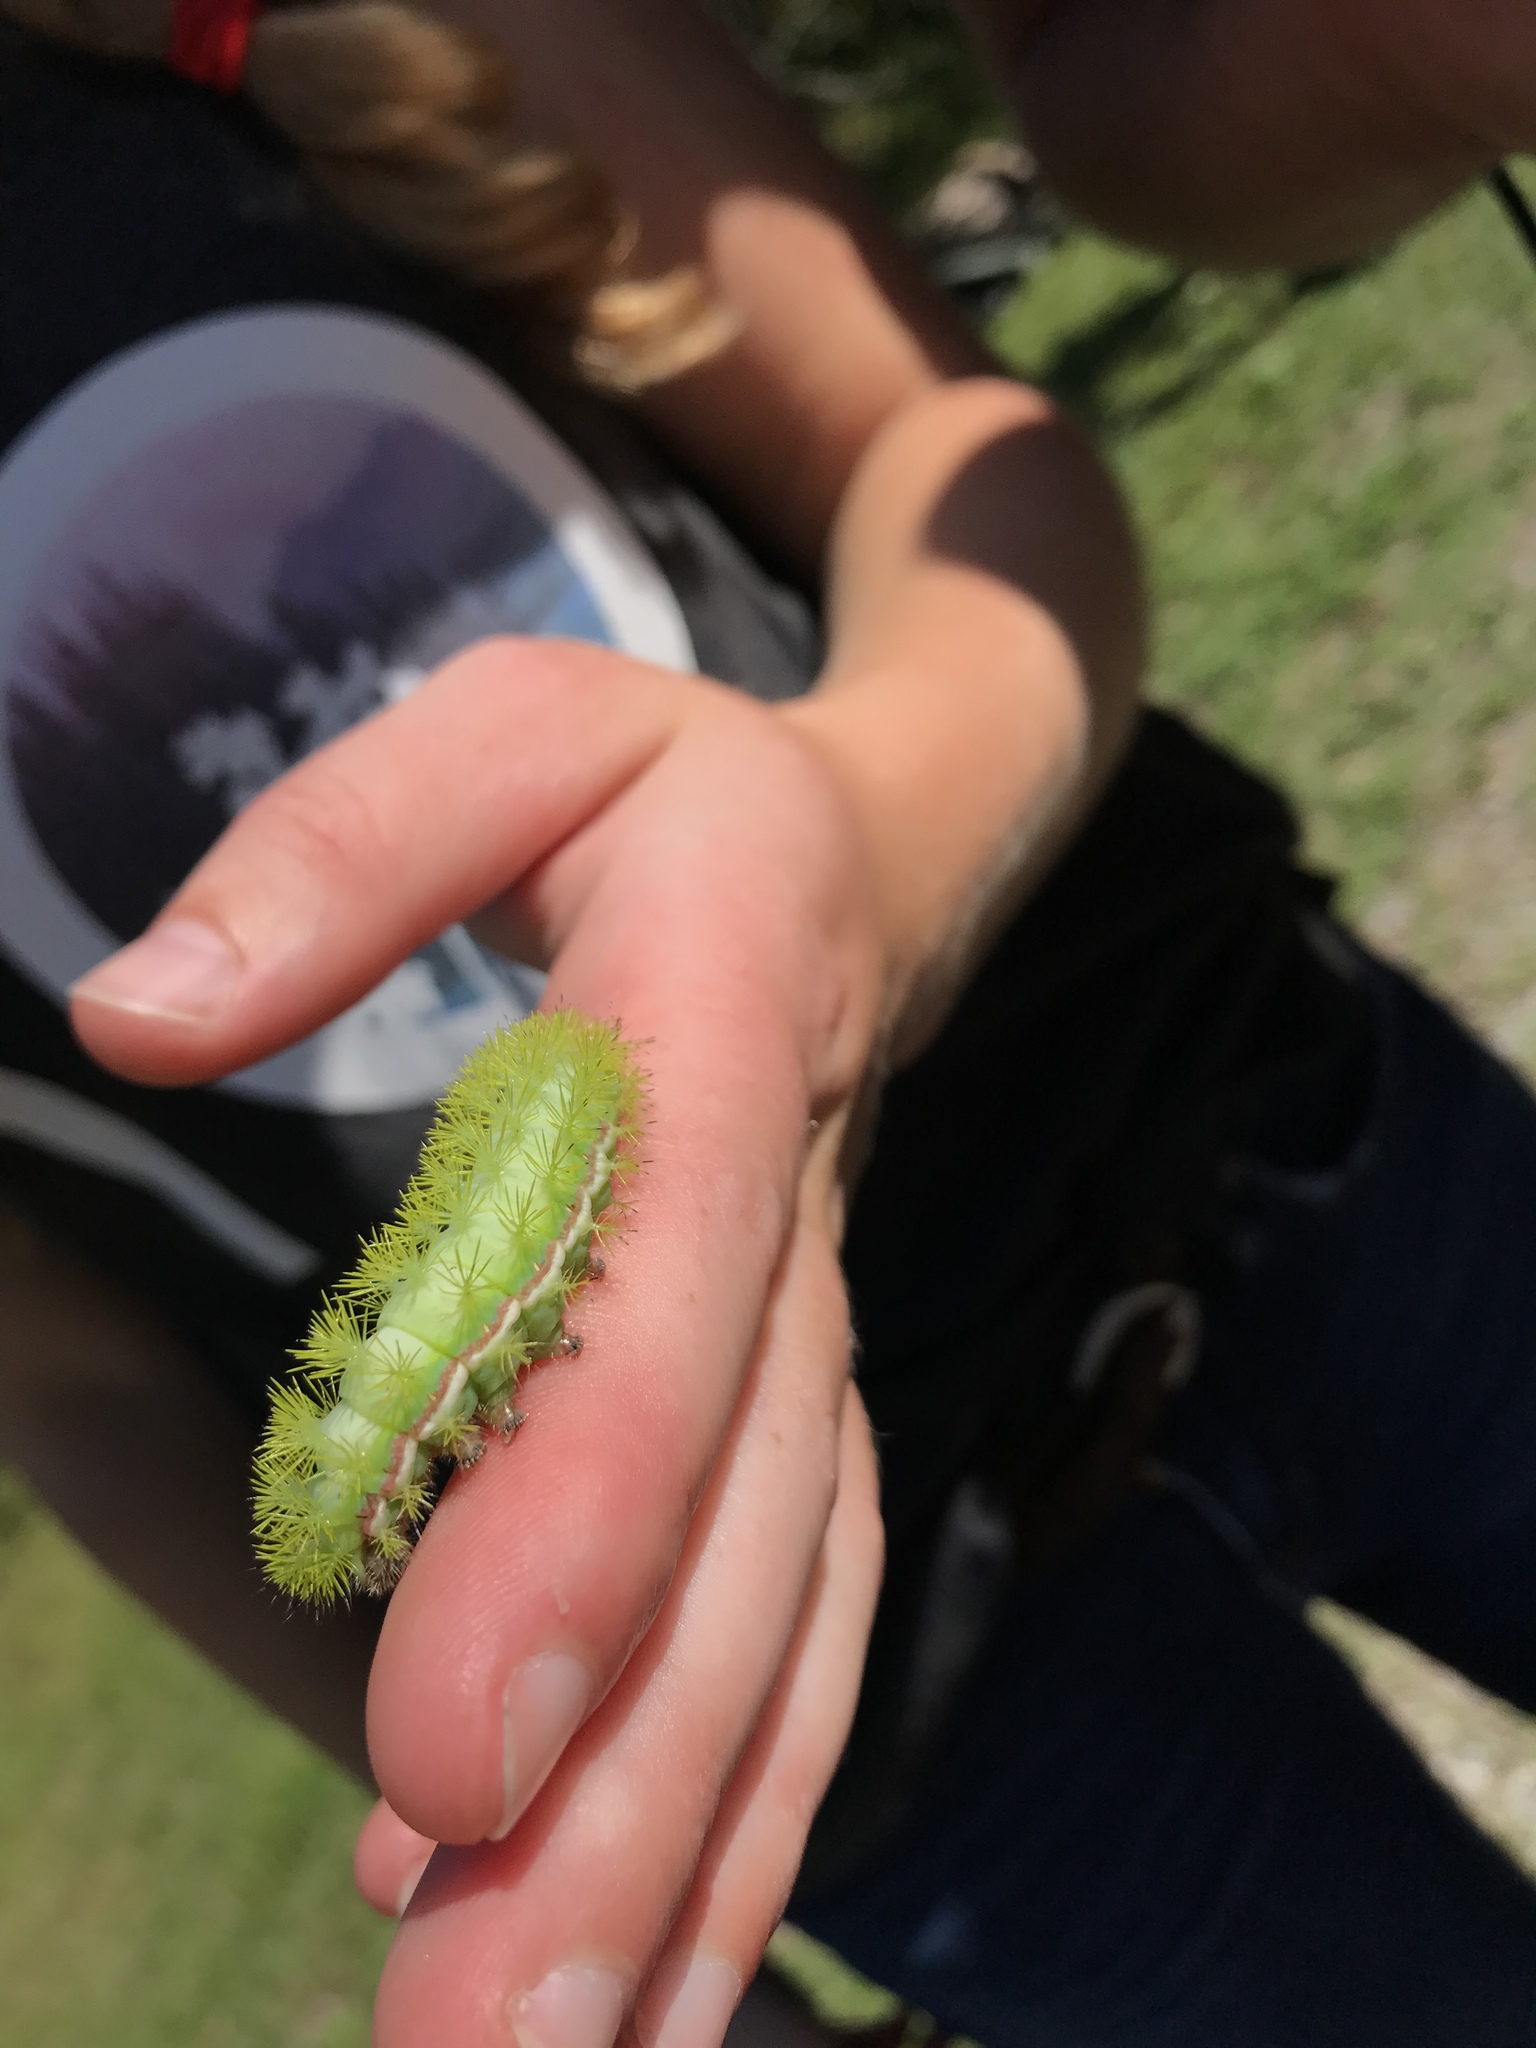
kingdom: Animalia
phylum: Arthropoda
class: Insecta
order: Lepidoptera
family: Saturniidae
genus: Automeris
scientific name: Automeris io
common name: Io moth
